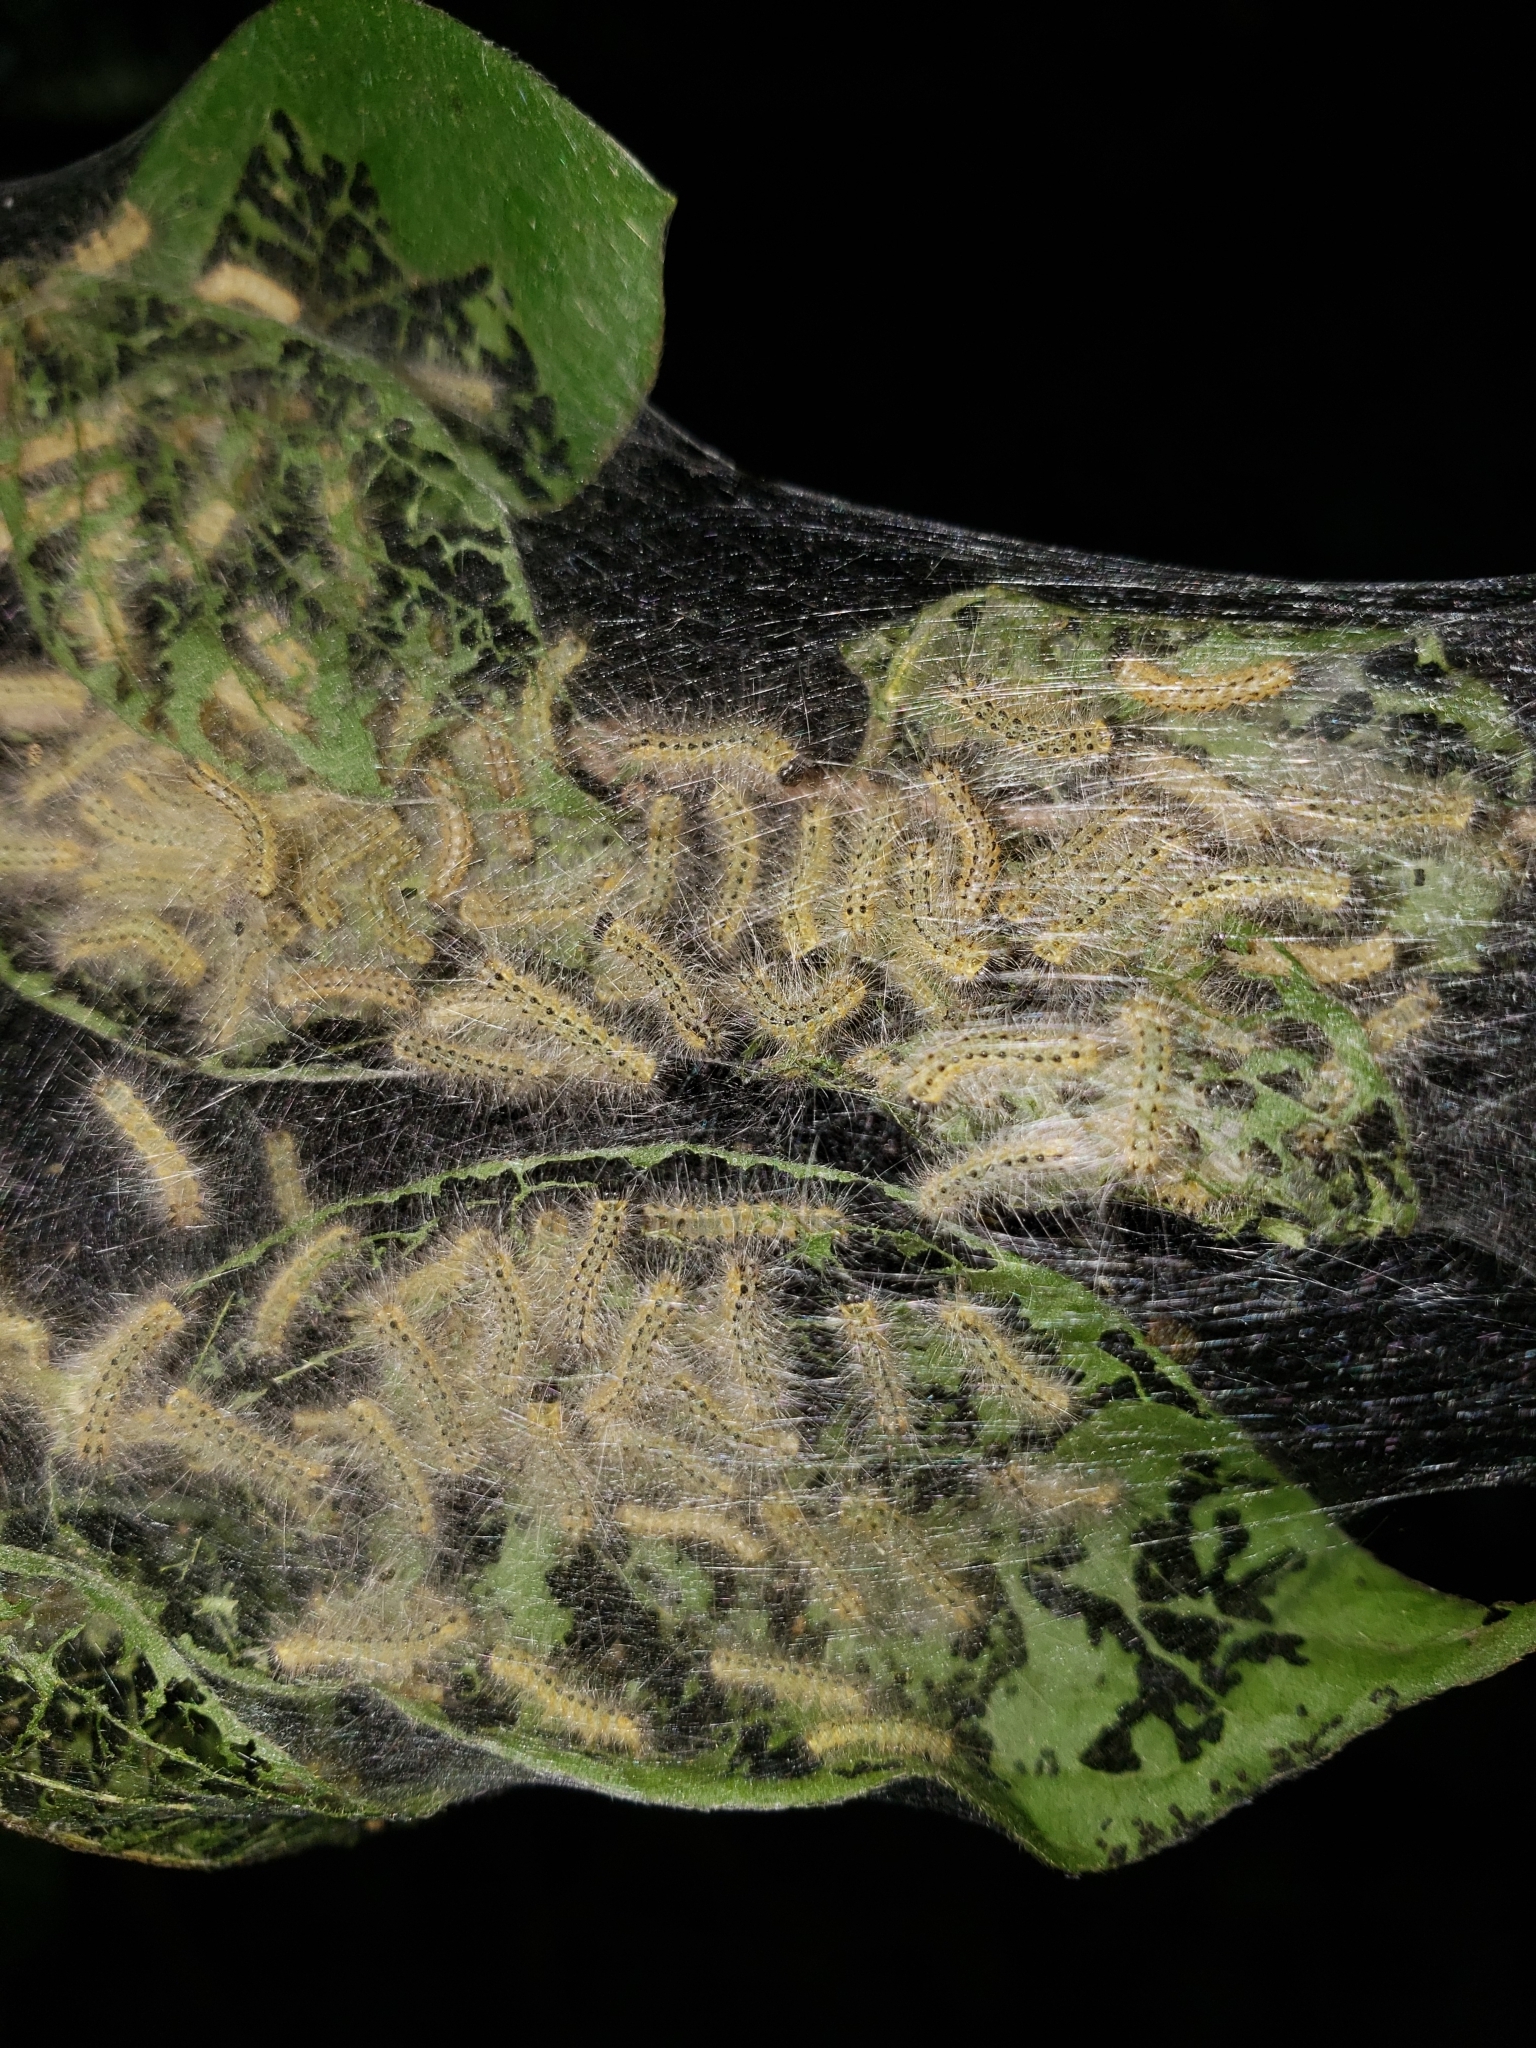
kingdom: Animalia
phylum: Arthropoda
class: Insecta
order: Lepidoptera
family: Erebidae
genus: Hyphantria
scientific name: Hyphantria cunea
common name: American white moth
